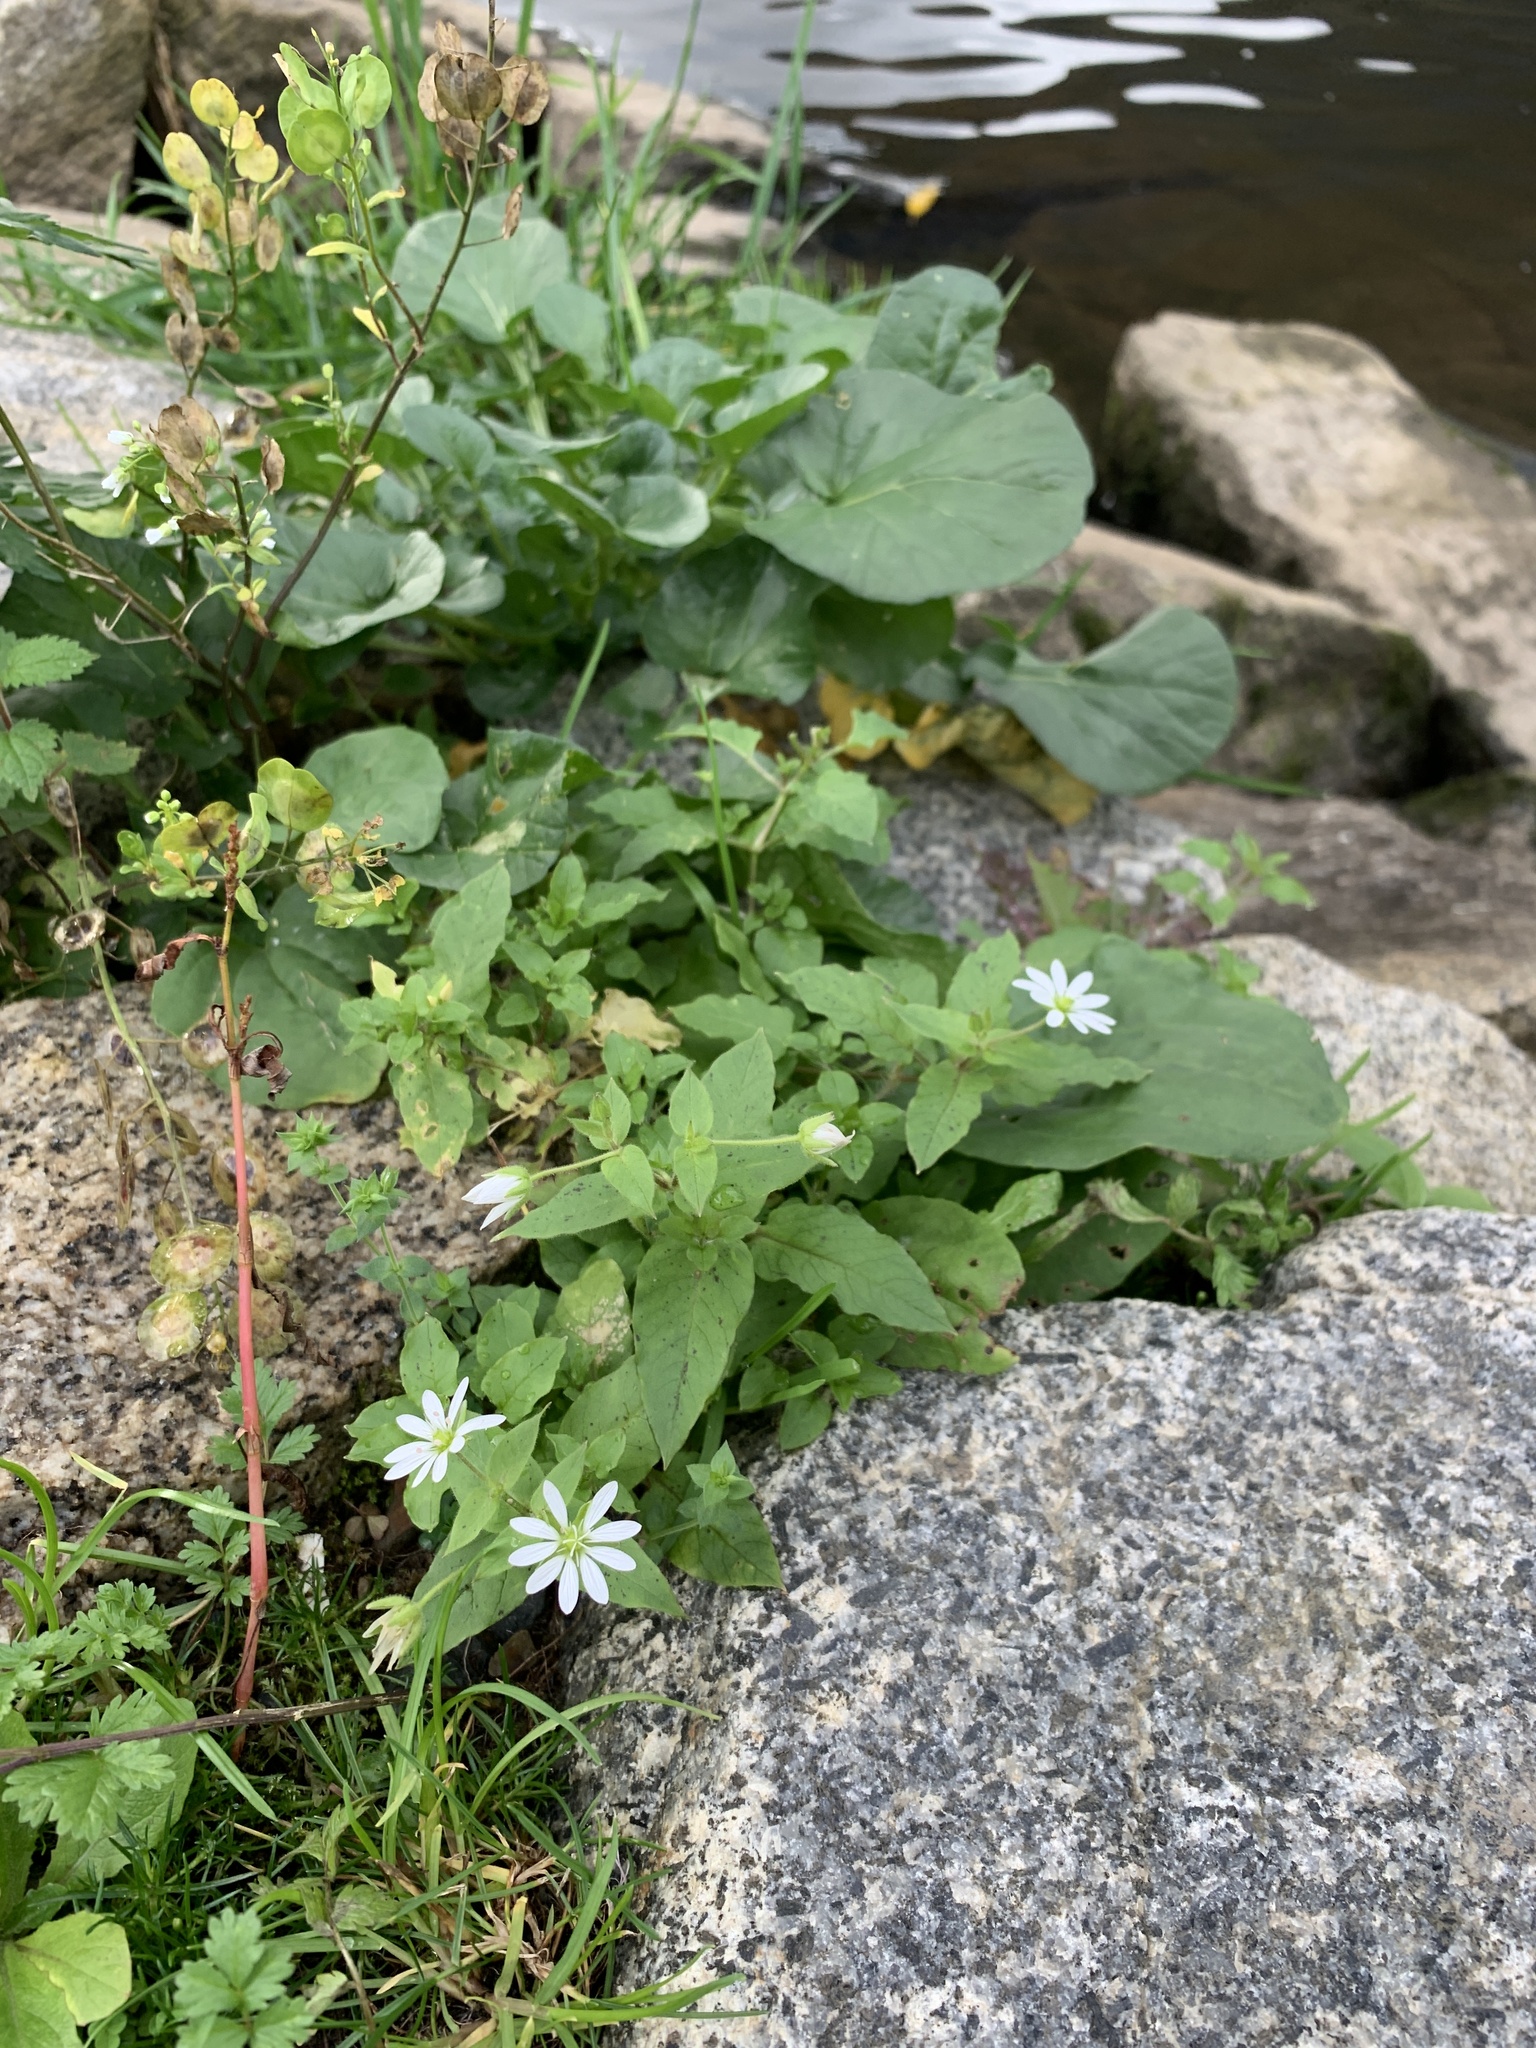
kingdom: Plantae
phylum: Tracheophyta
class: Magnoliopsida
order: Caryophyllales
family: Caryophyllaceae
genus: Stellaria
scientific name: Stellaria aquatica
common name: Water chickweed
